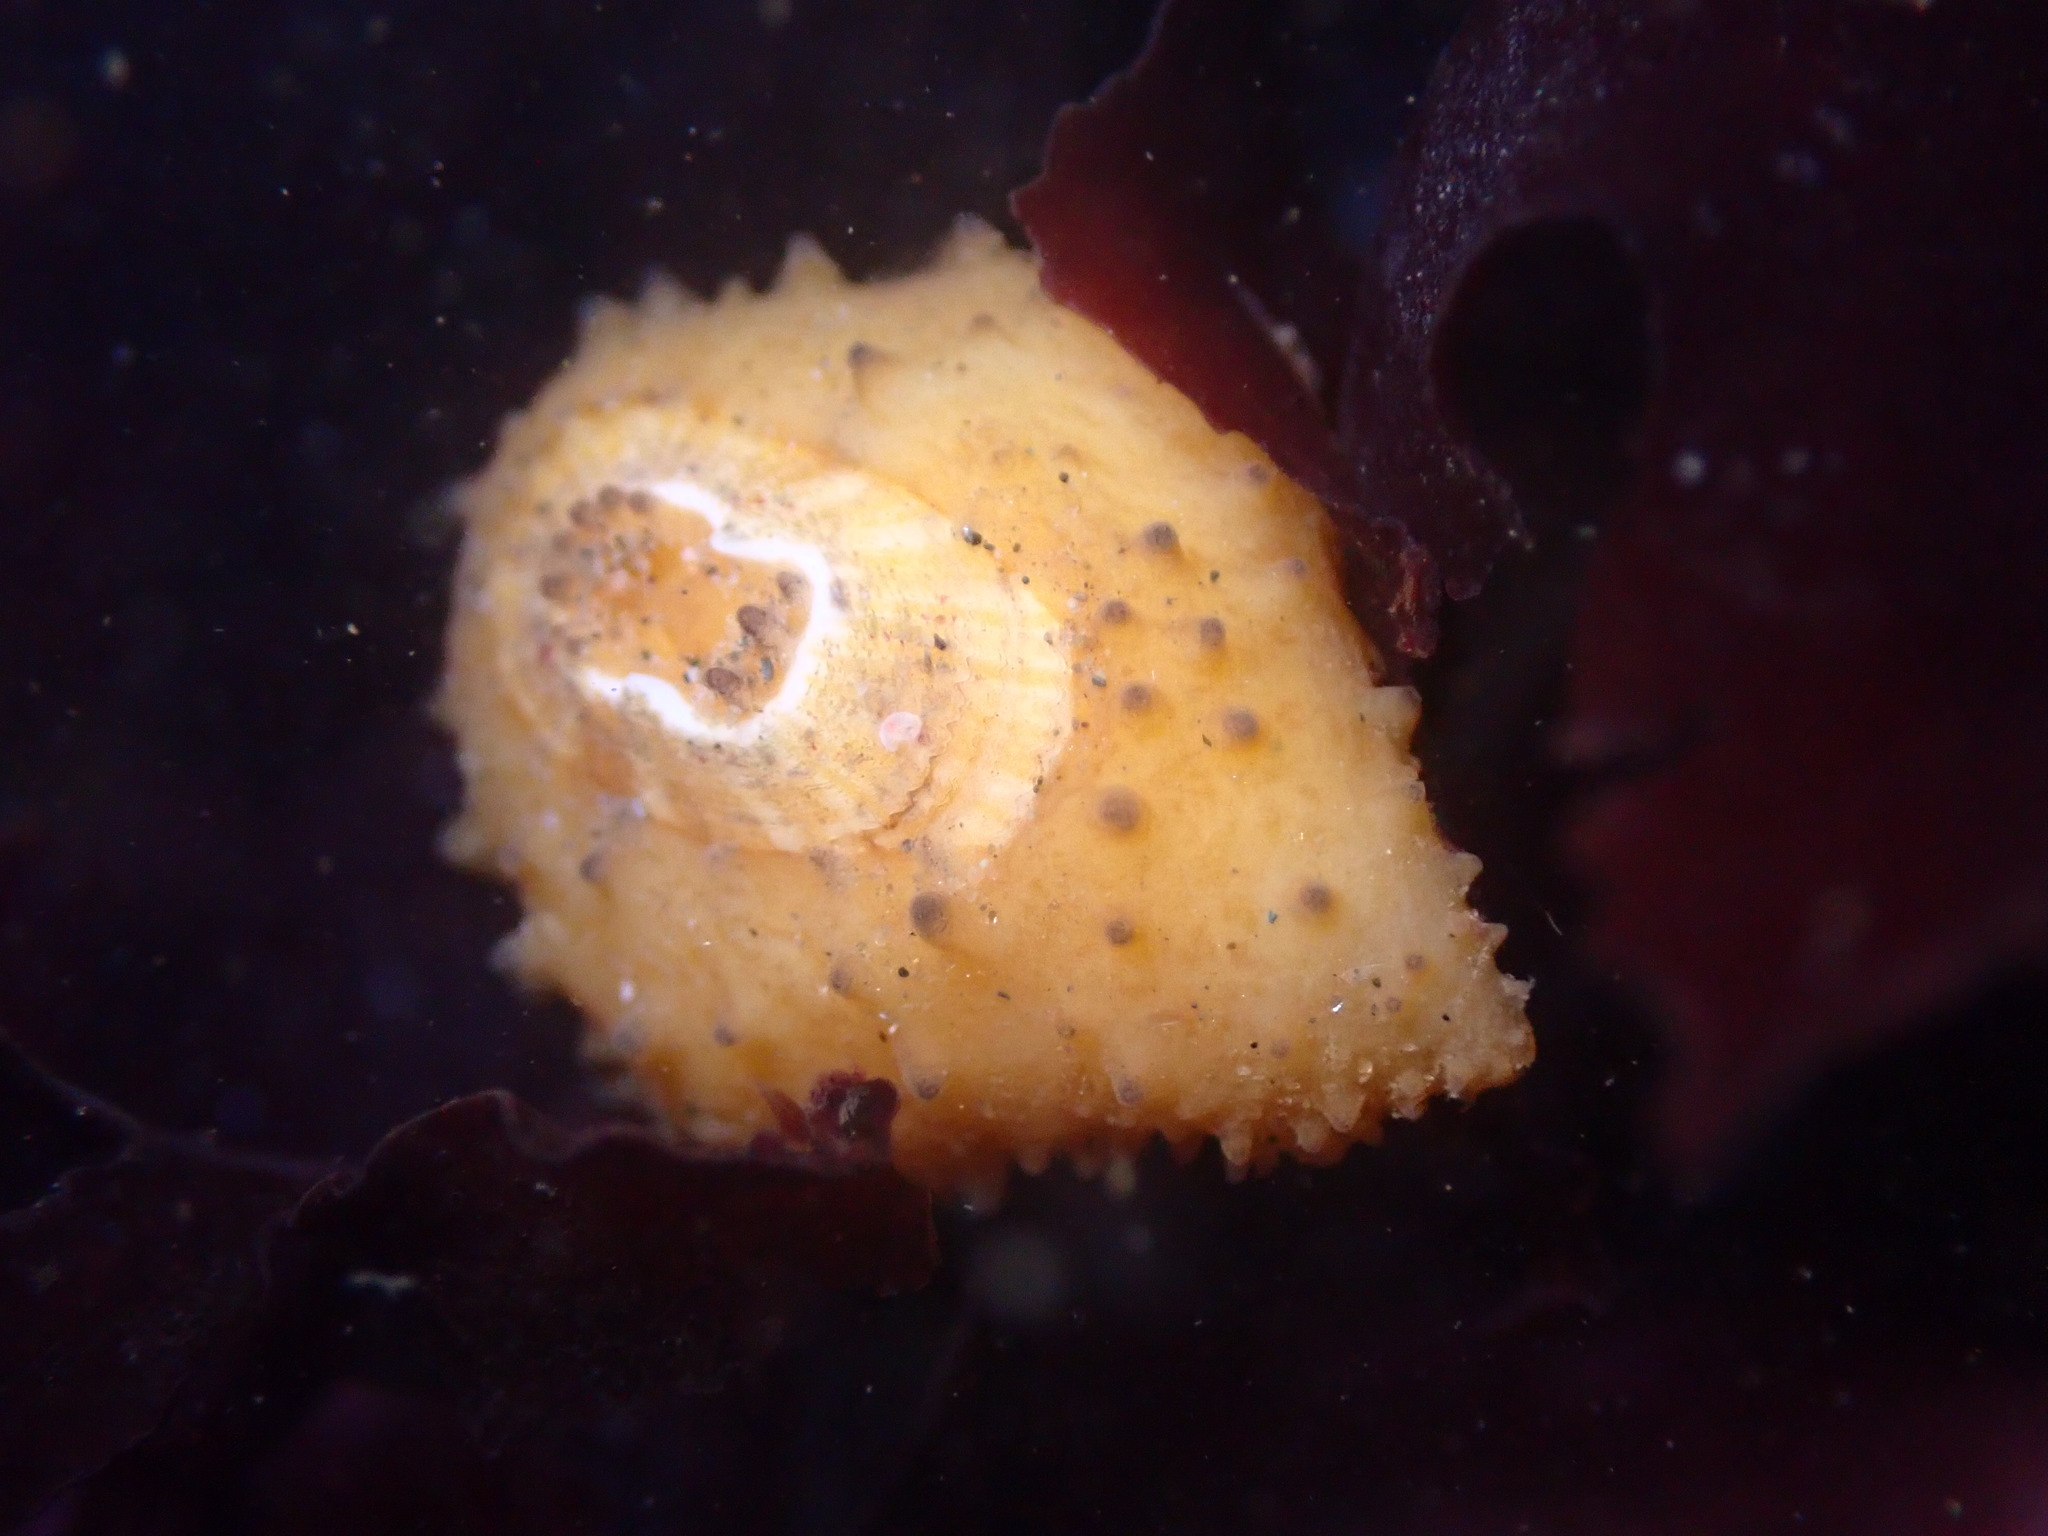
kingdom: Animalia
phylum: Mollusca
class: Gastropoda
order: Lepetellida
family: Fissurellidae
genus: Fissurellidea
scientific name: Fissurellidea bimaculata
